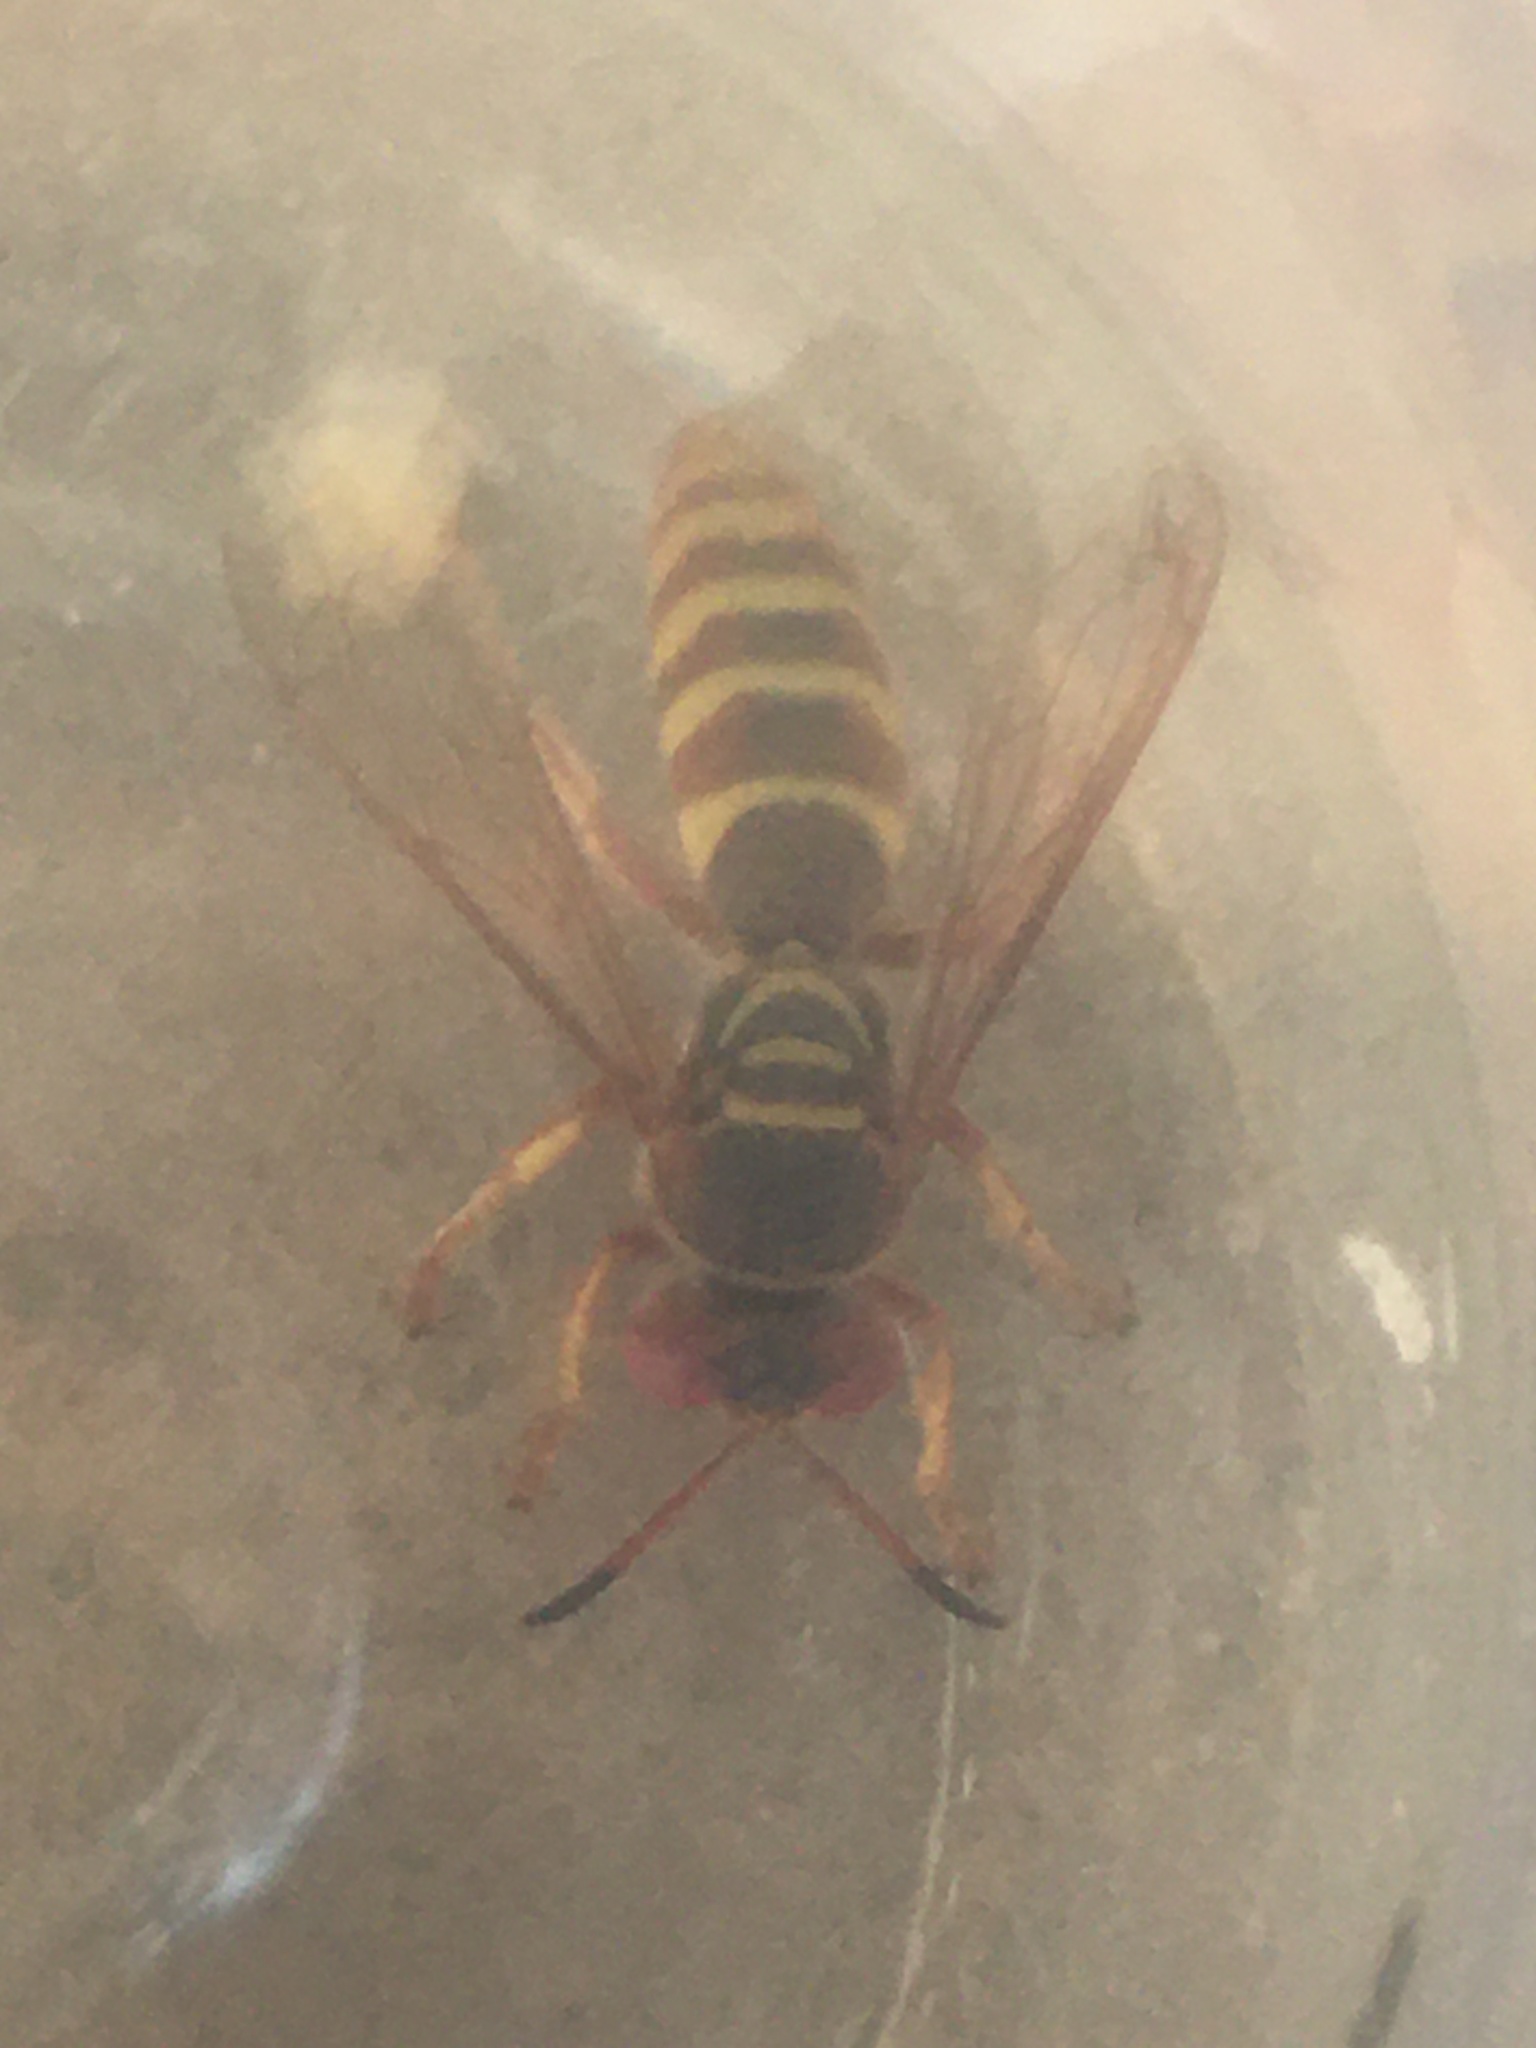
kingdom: Animalia
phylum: Arthropoda
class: Insecta
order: Hymenoptera
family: Crabronidae
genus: Rubrica
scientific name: Rubrica nasuta
